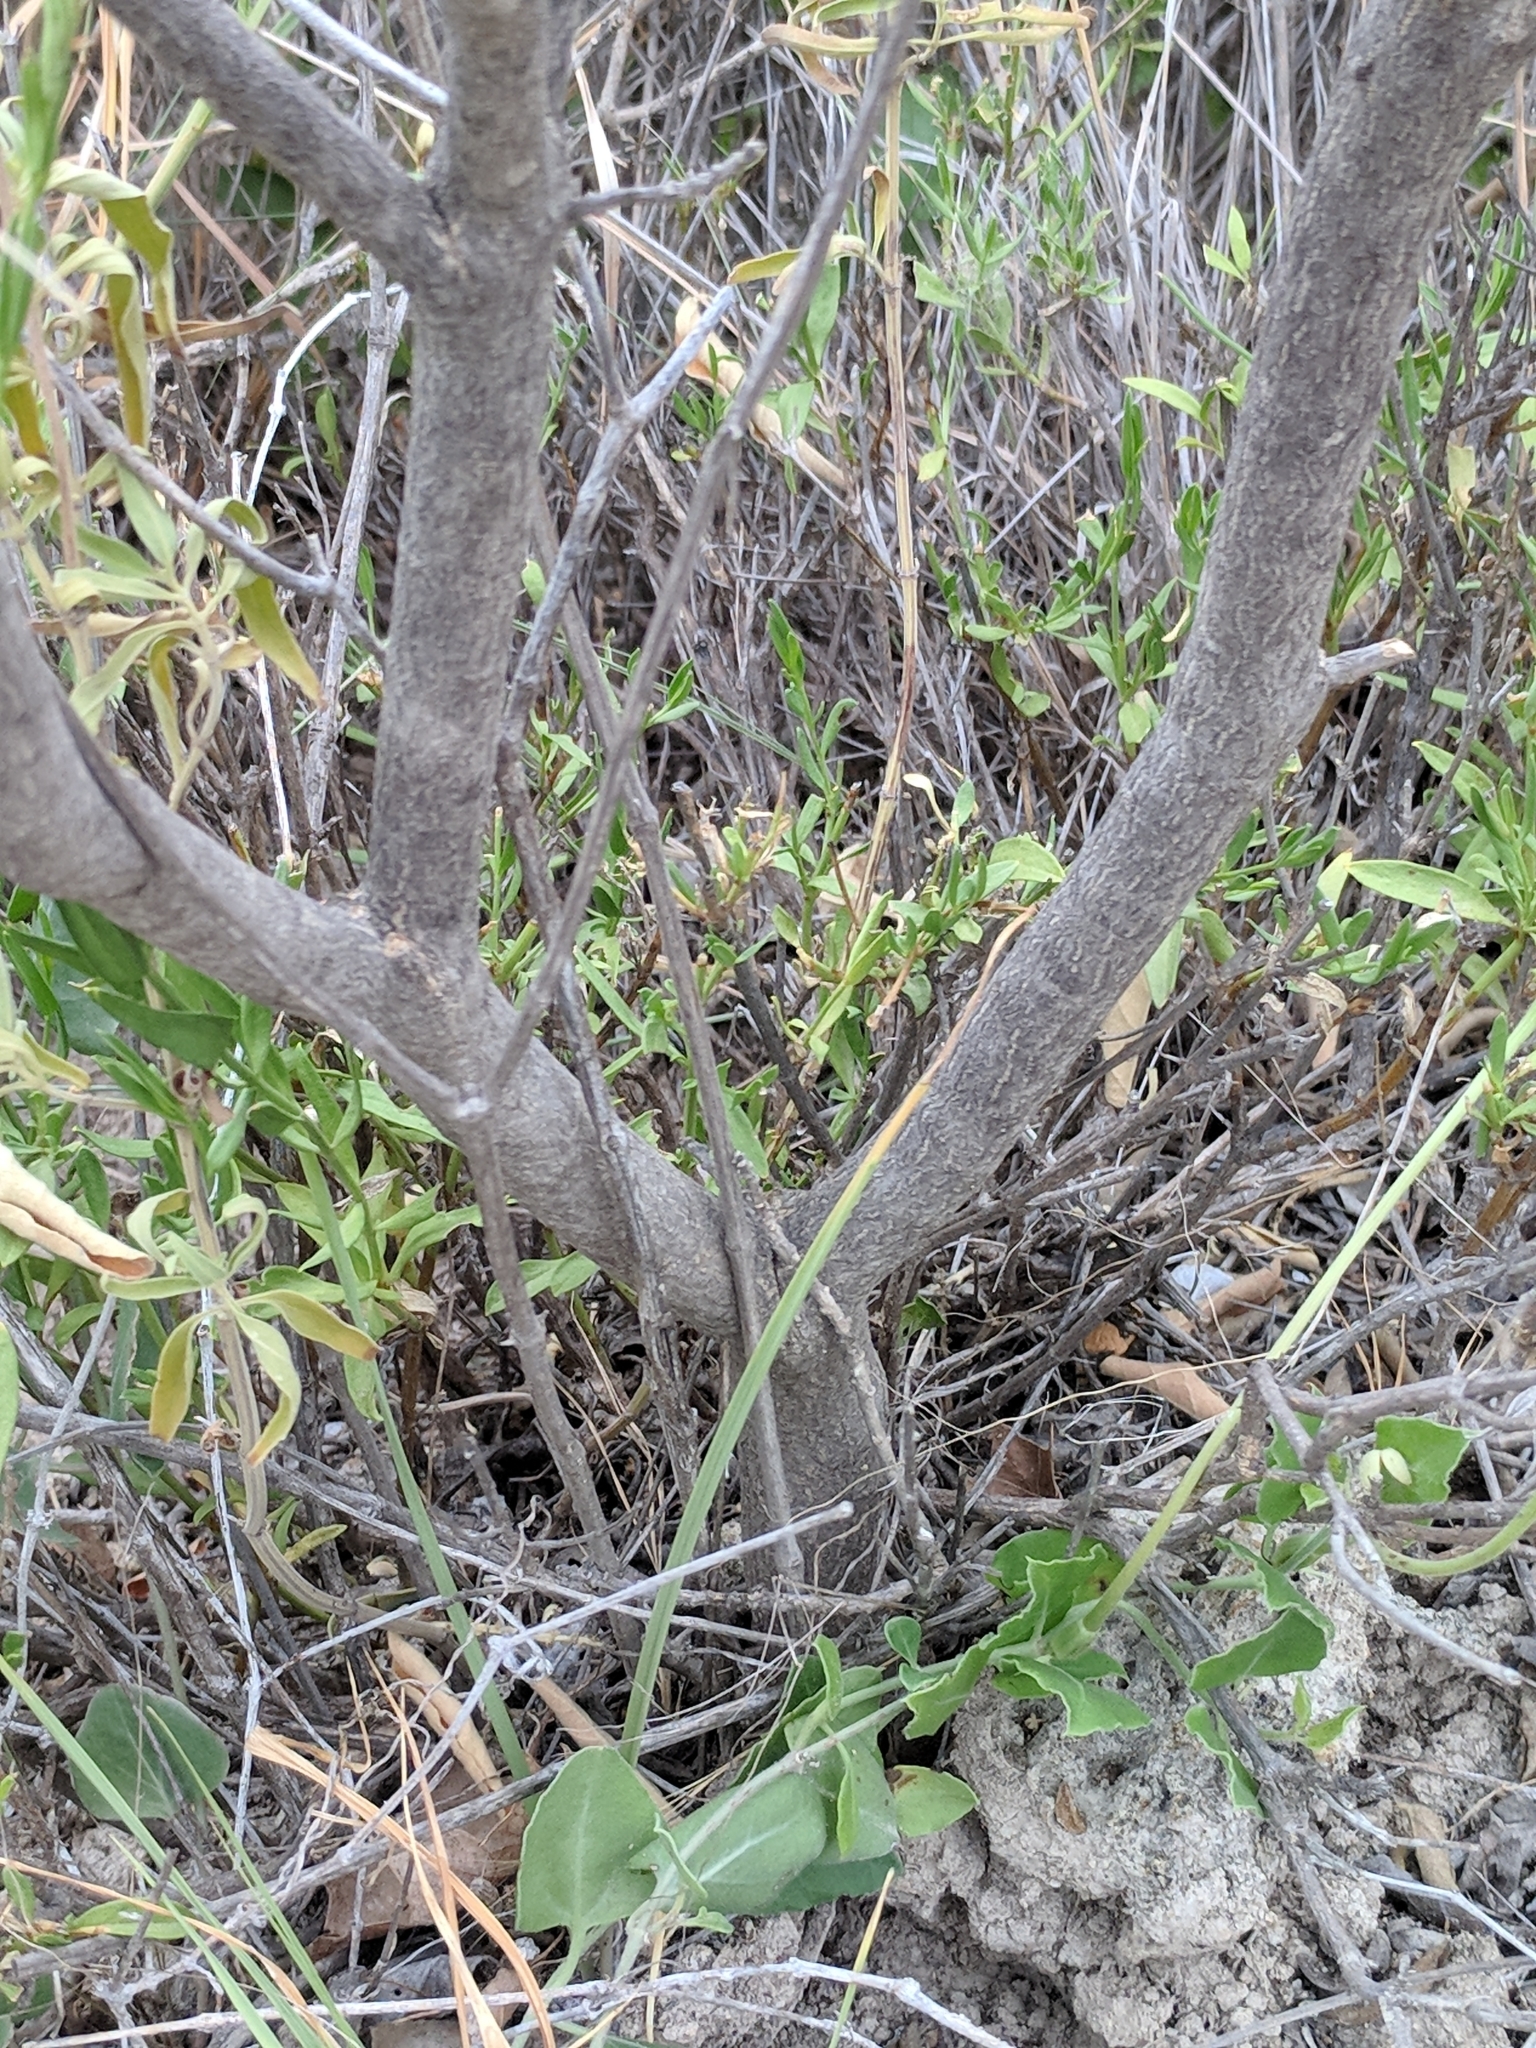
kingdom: Plantae
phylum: Tracheophyta
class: Magnoliopsida
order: Malpighiales
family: Euphorbiaceae
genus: Croton
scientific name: Croton incanus
